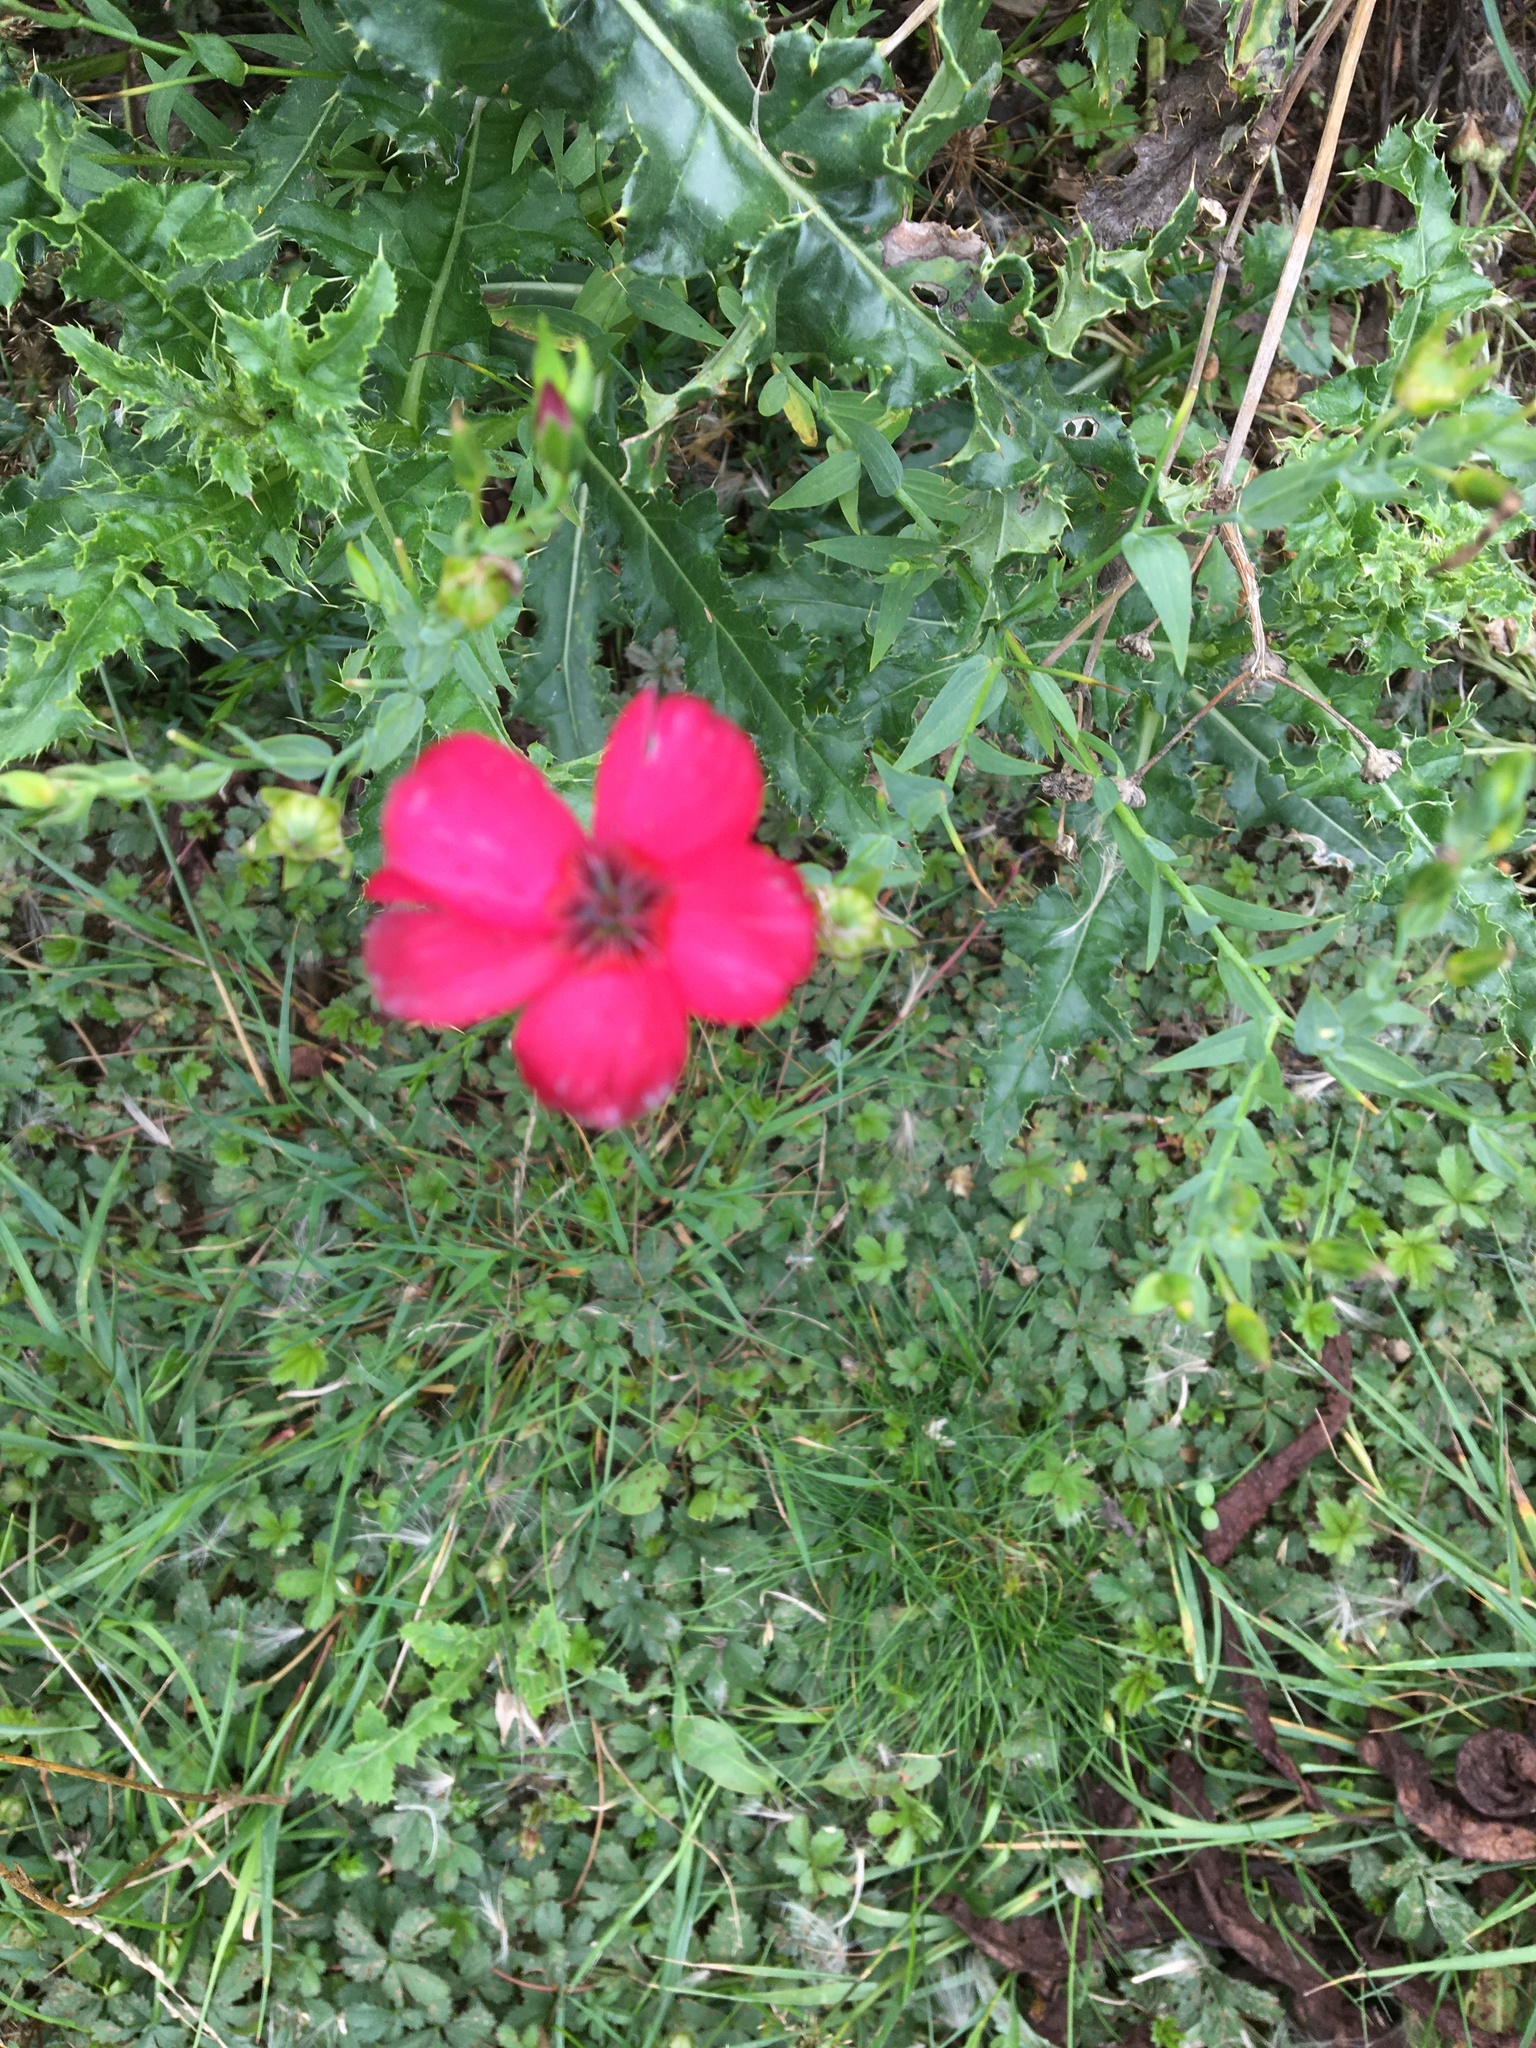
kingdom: Plantae
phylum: Tracheophyta
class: Magnoliopsida
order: Malpighiales
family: Linaceae
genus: Linum
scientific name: Linum grandiflorum
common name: Crimson flax
